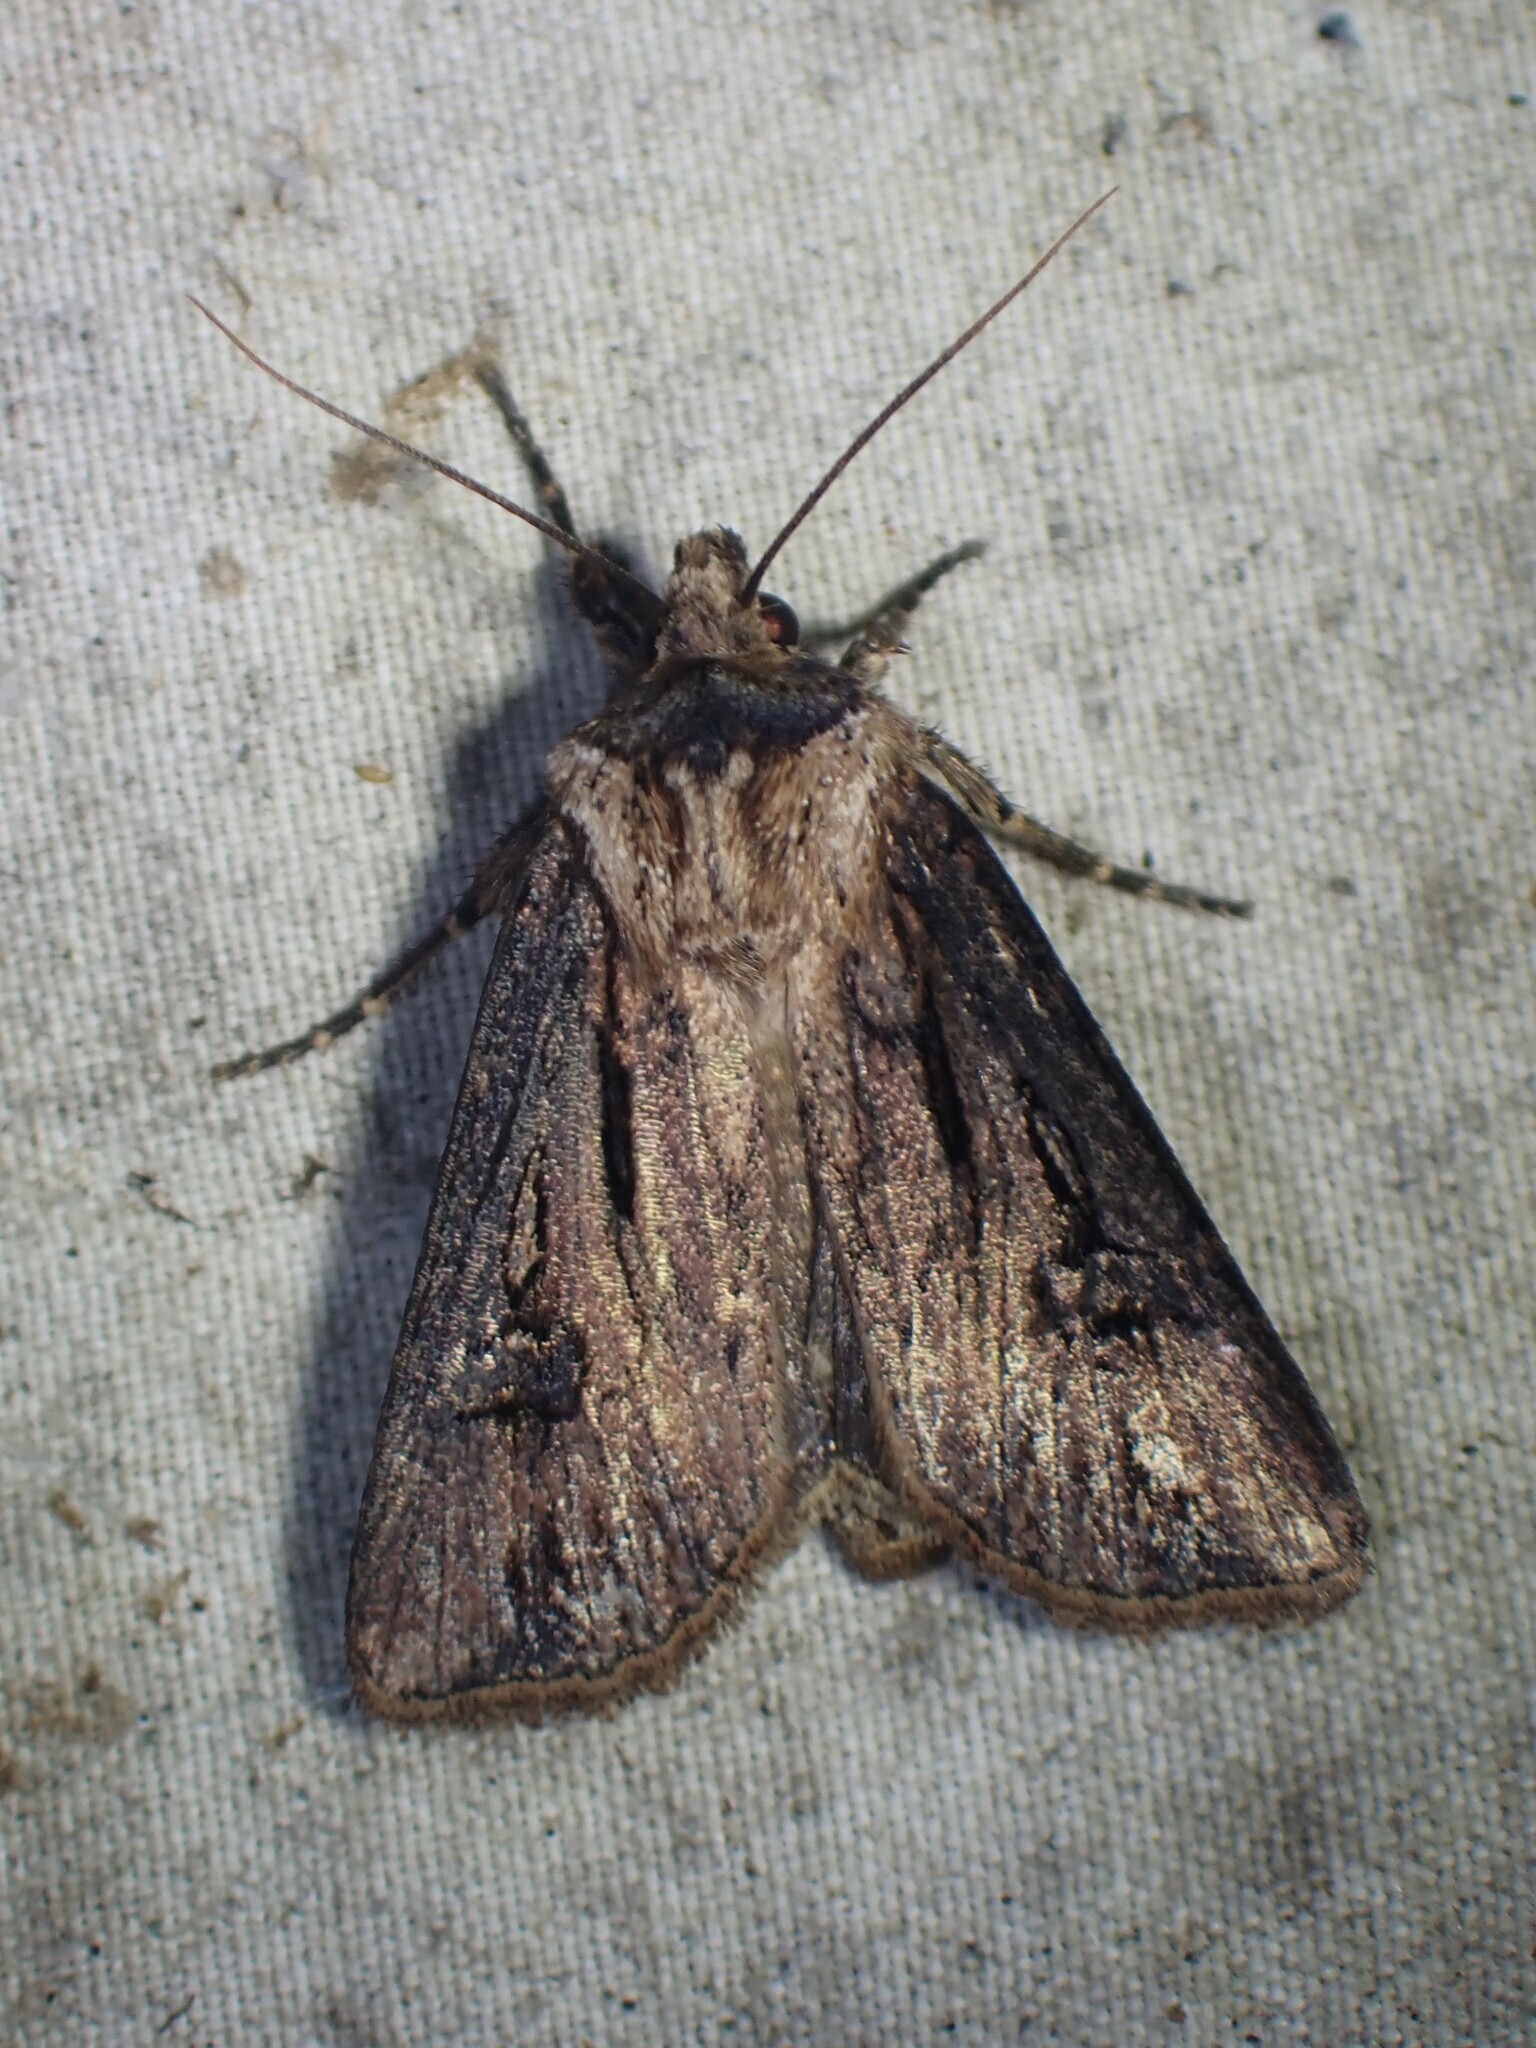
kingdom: Animalia
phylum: Arthropoda
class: Insecta
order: Lepidoptera
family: Noctuidae
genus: Agrotis
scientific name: Agrotis venerabilis
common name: Venerable dart
